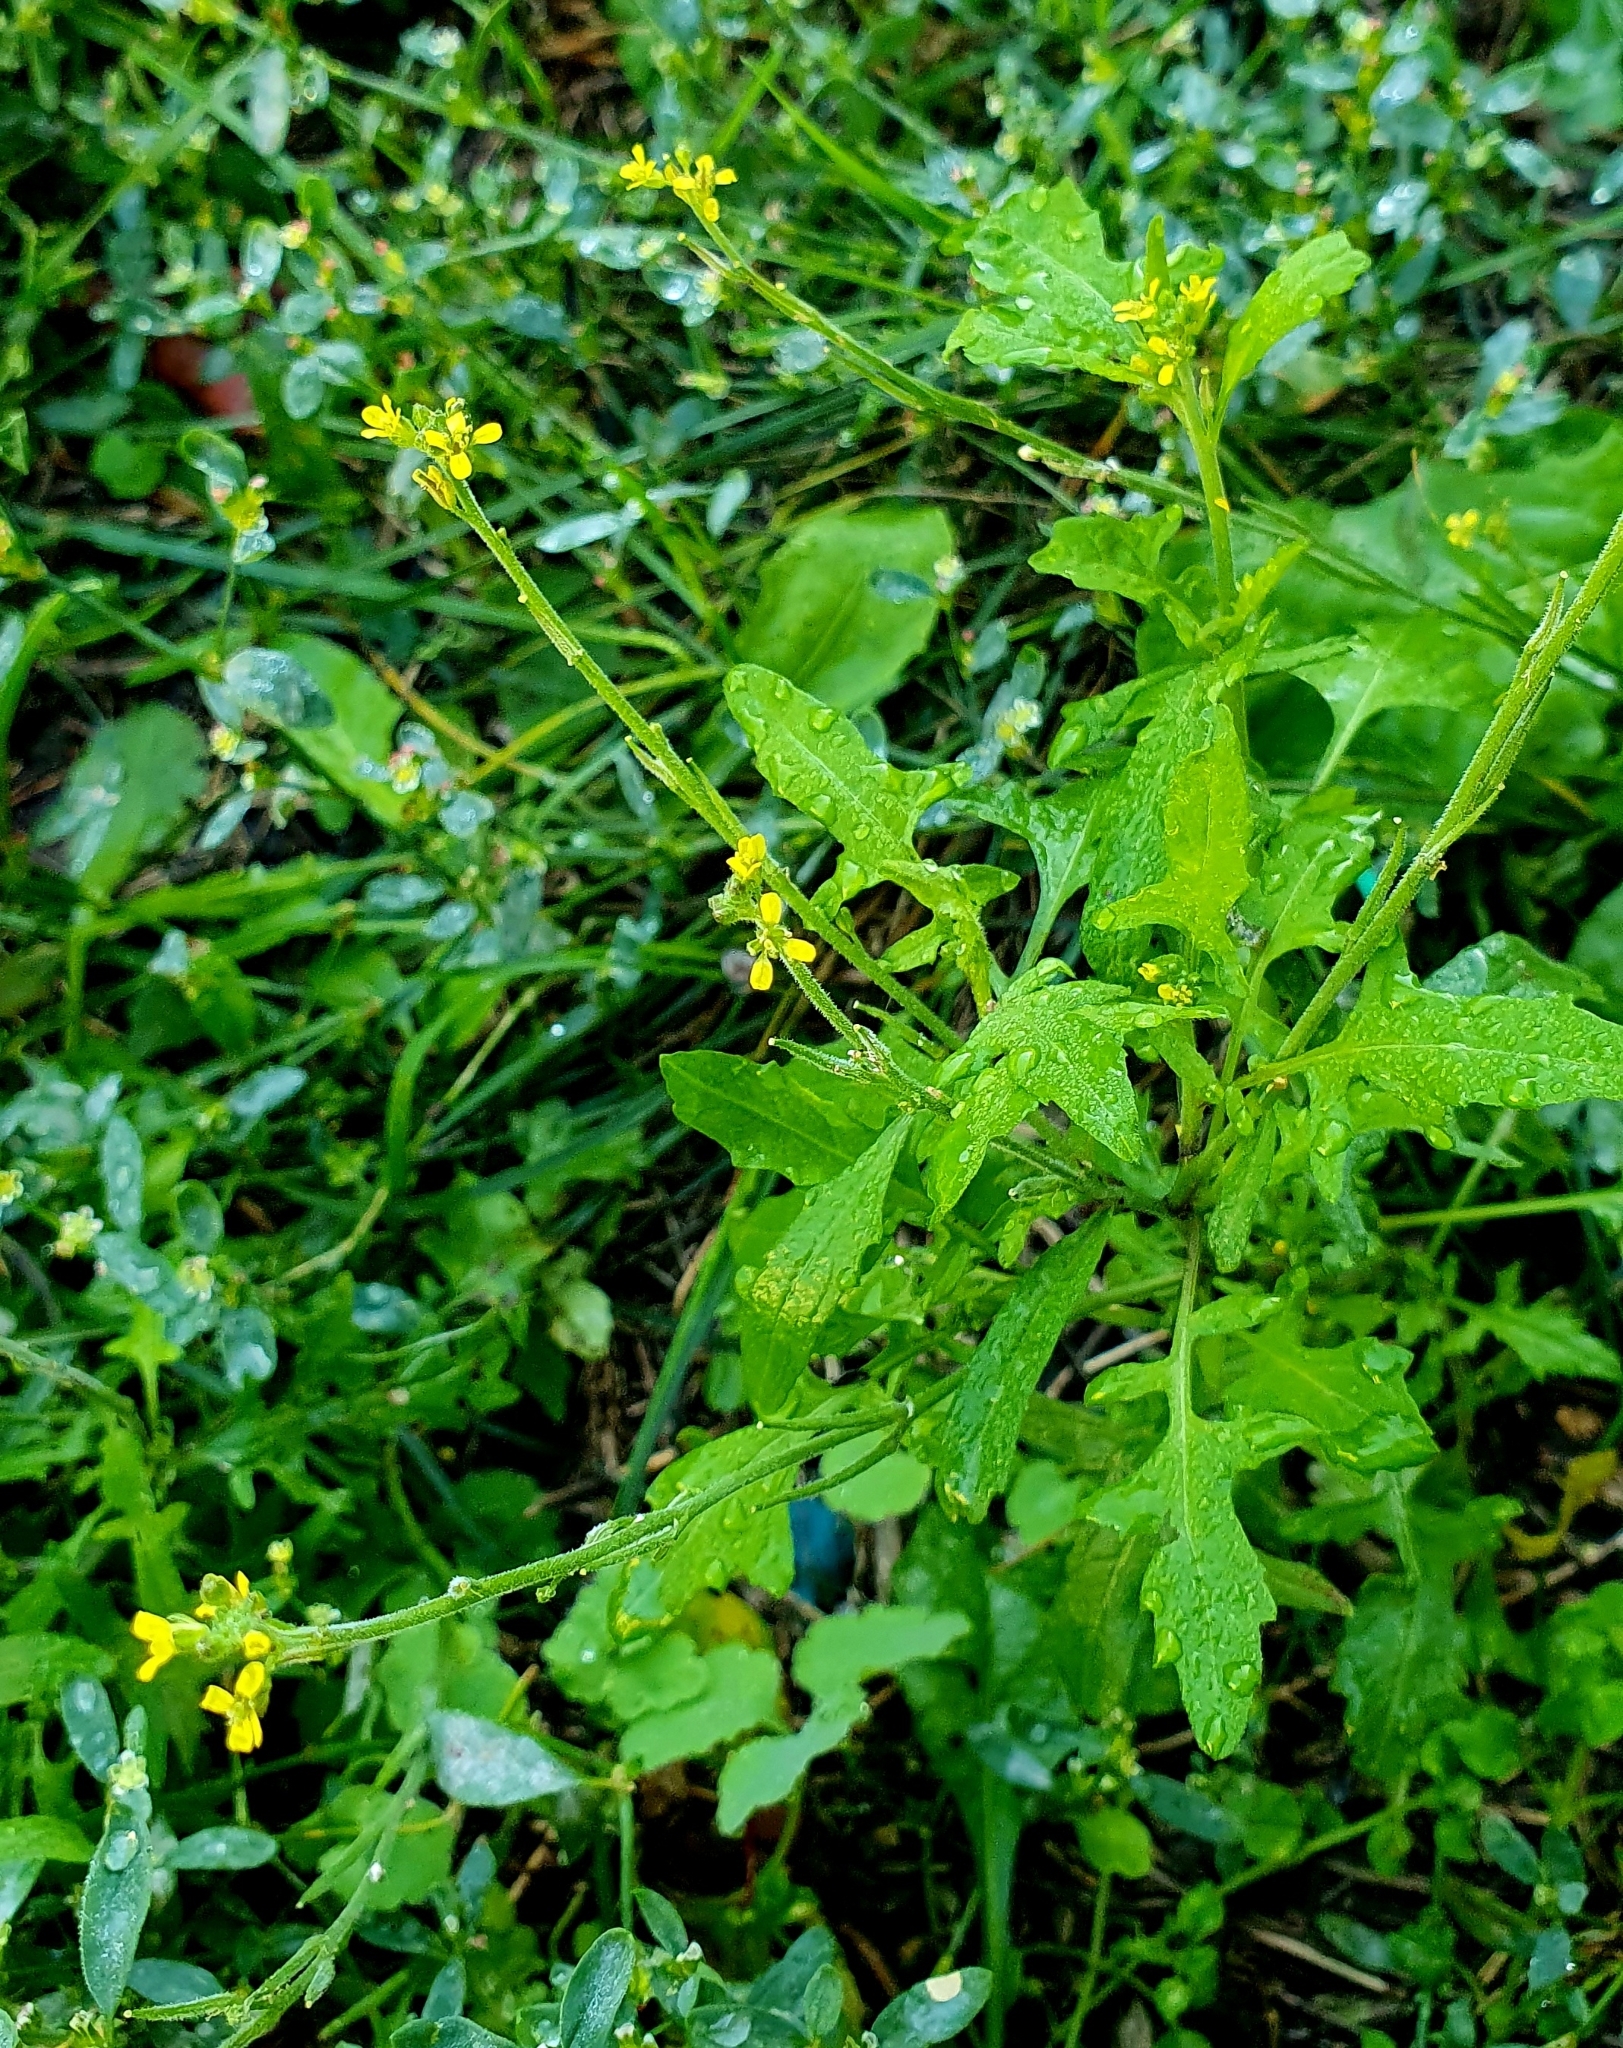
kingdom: Plantae
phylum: Tracheophyta
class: Magnoliopsida
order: Brassicales
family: Brassicaceae
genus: Sisymbrium
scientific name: Sisymbrium officinale
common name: Hedge mustard
